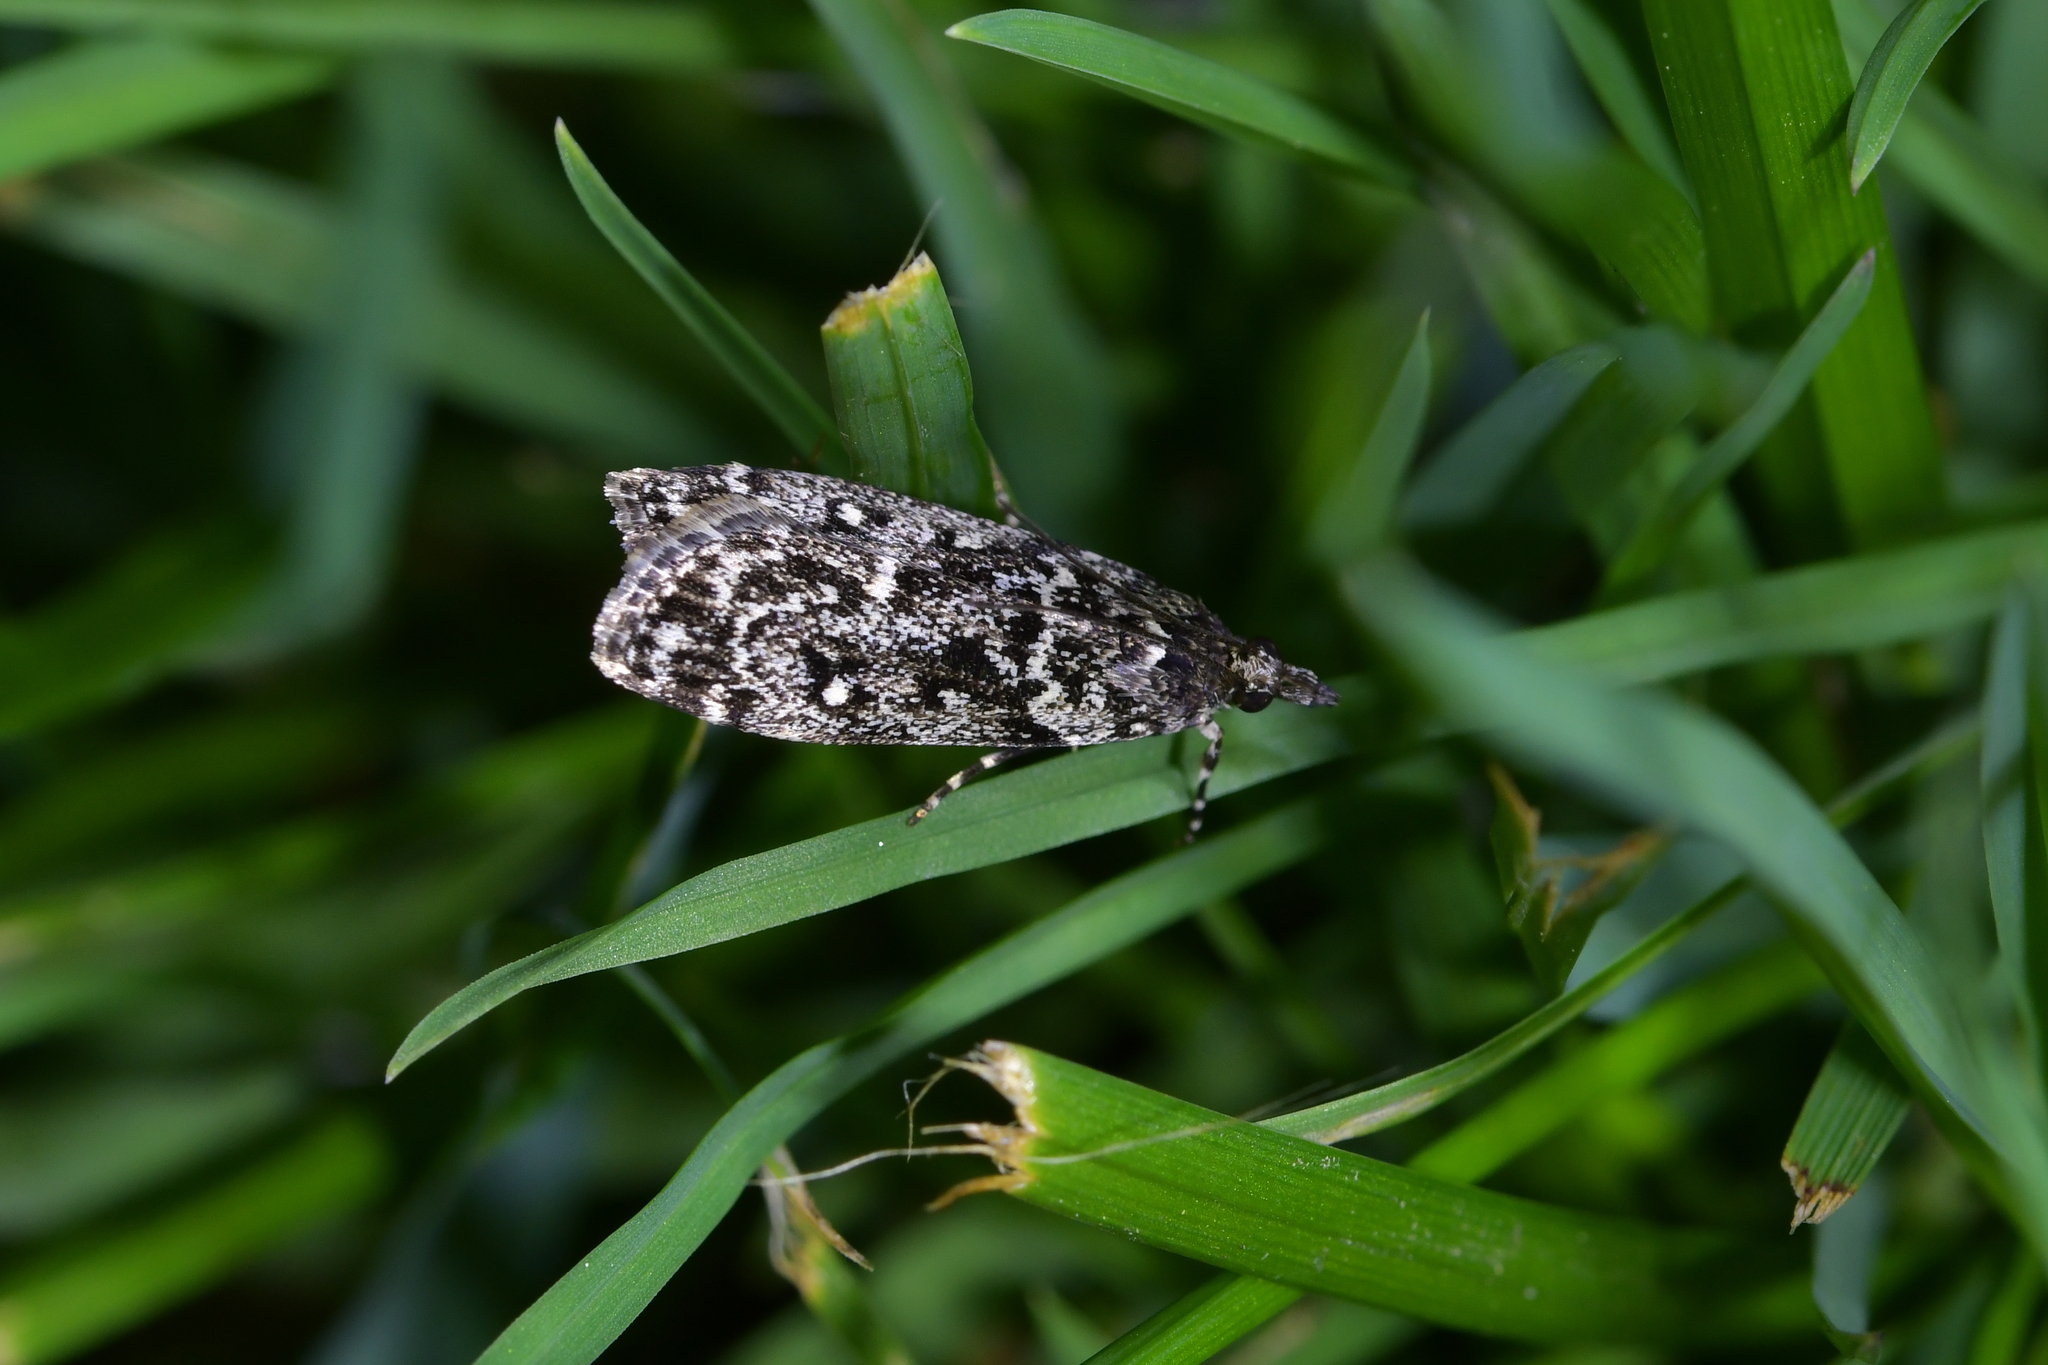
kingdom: Animalia
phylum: Arthropoda
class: Insecta
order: Lepidoptera
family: Crambidae
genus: Eudonia
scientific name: Eudonia philerga
